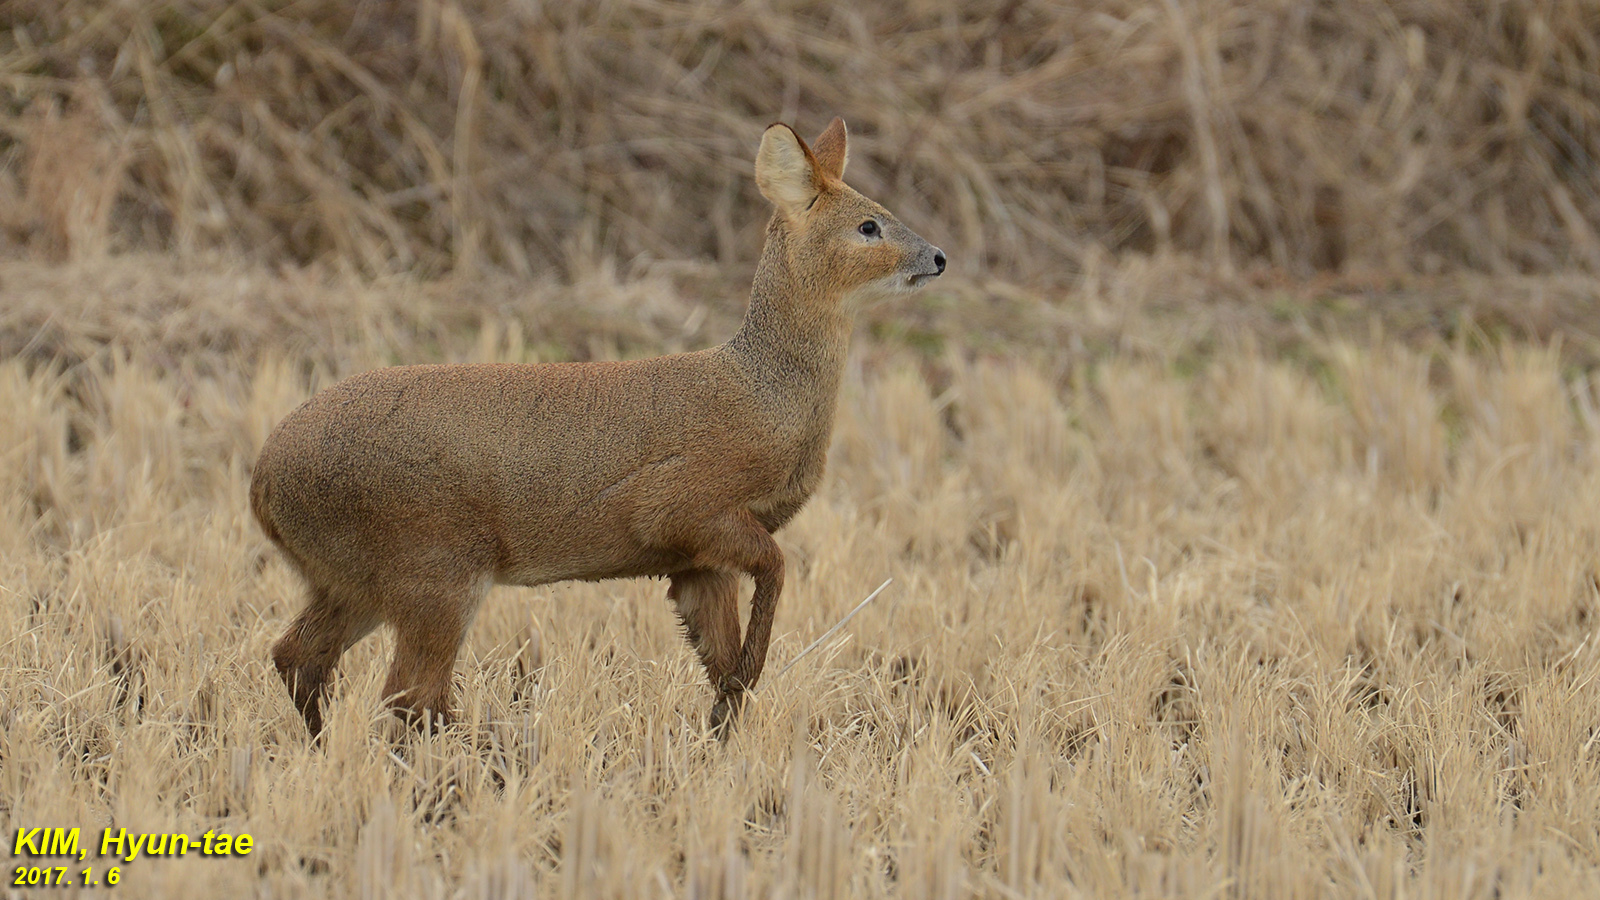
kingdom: Animalia
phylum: Chordata
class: Mammalia
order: Artiodactyla
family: Cervidae
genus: Hydropotes
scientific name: Hydropotes inermis
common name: Chinese water deer
